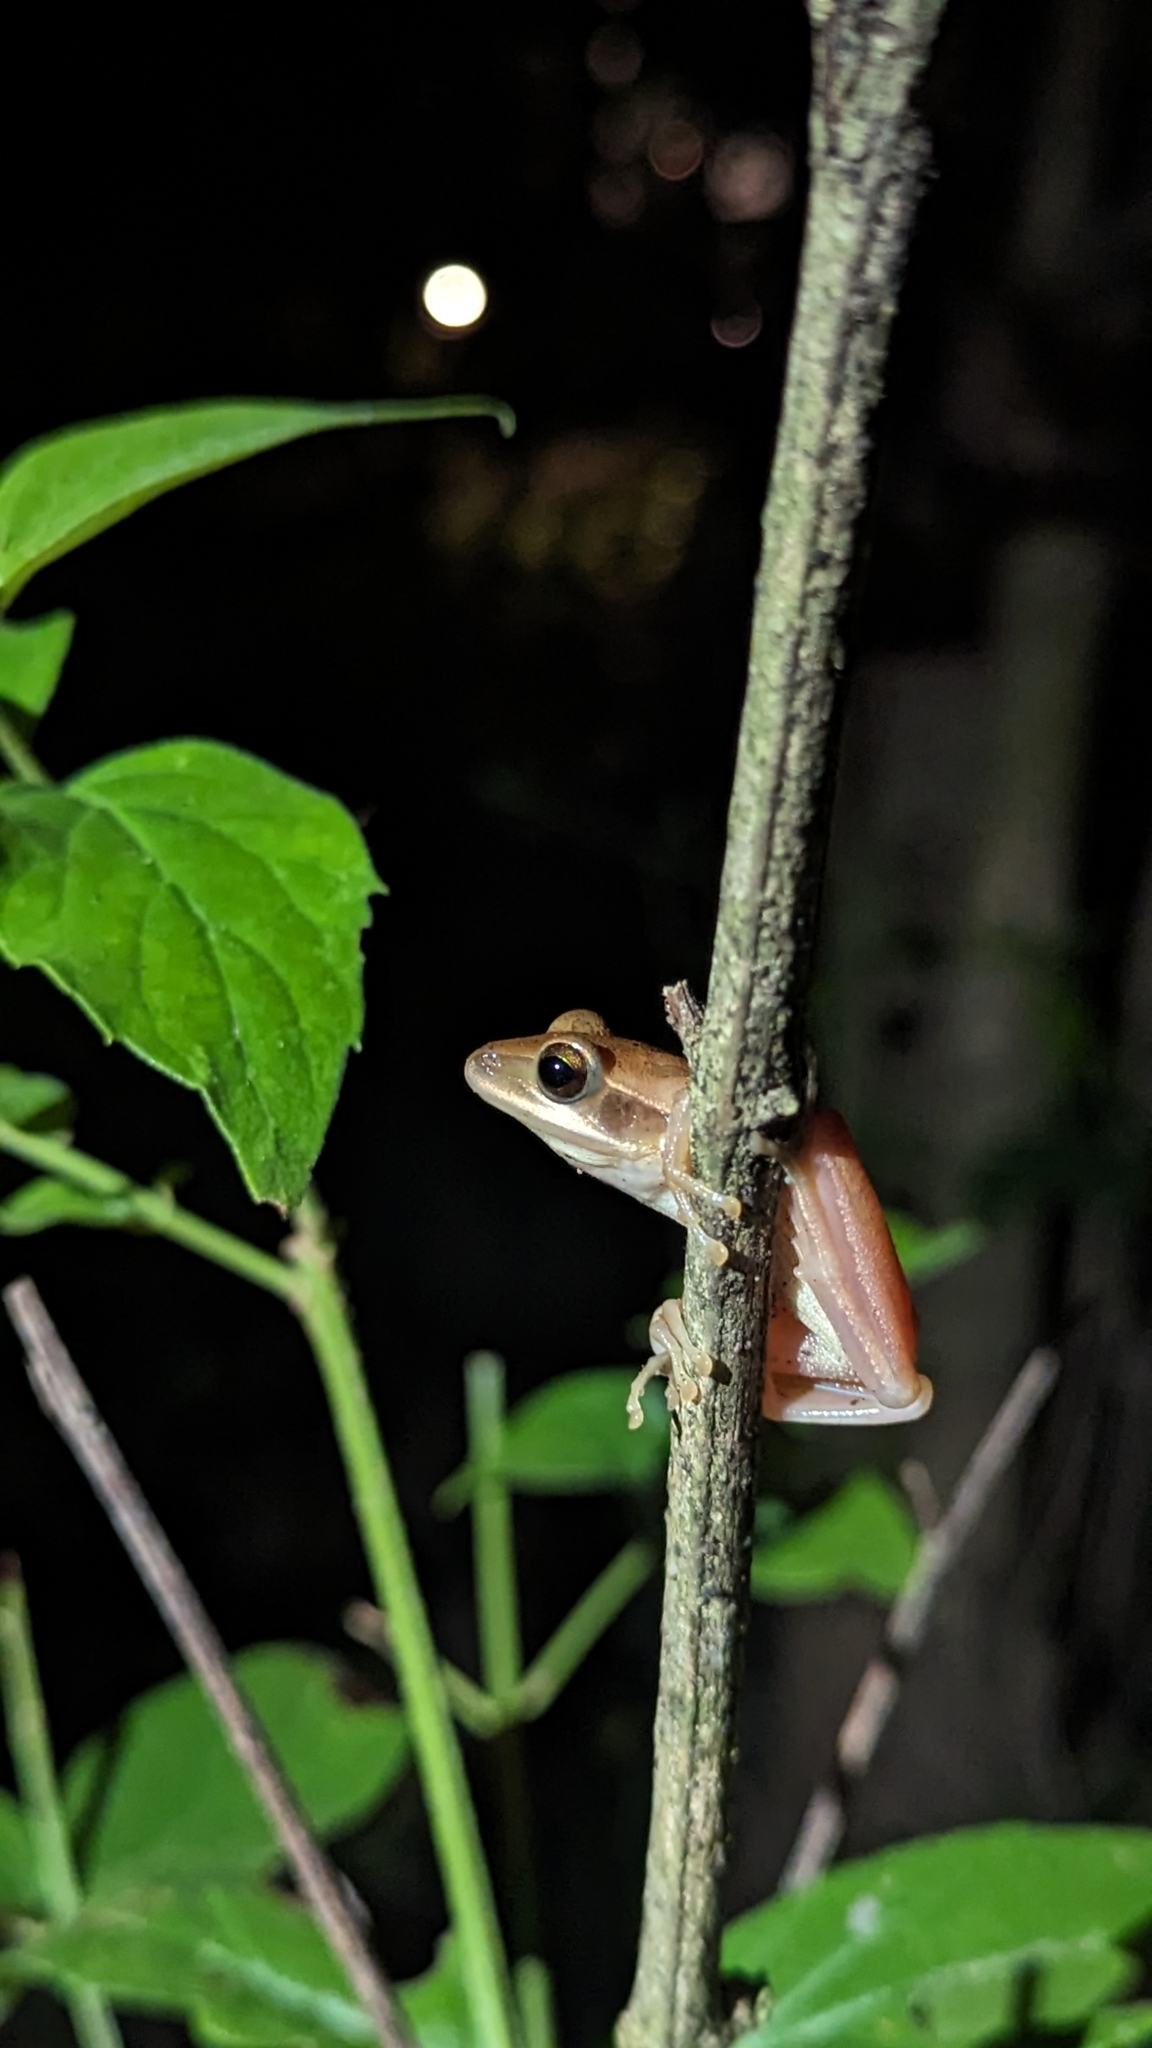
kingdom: Animalia
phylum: Chordata
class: Amphibia
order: Anura
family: Rhacophoridae
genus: Polypedates
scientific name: Polypedates maculatus
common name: Himalayan tree frog
